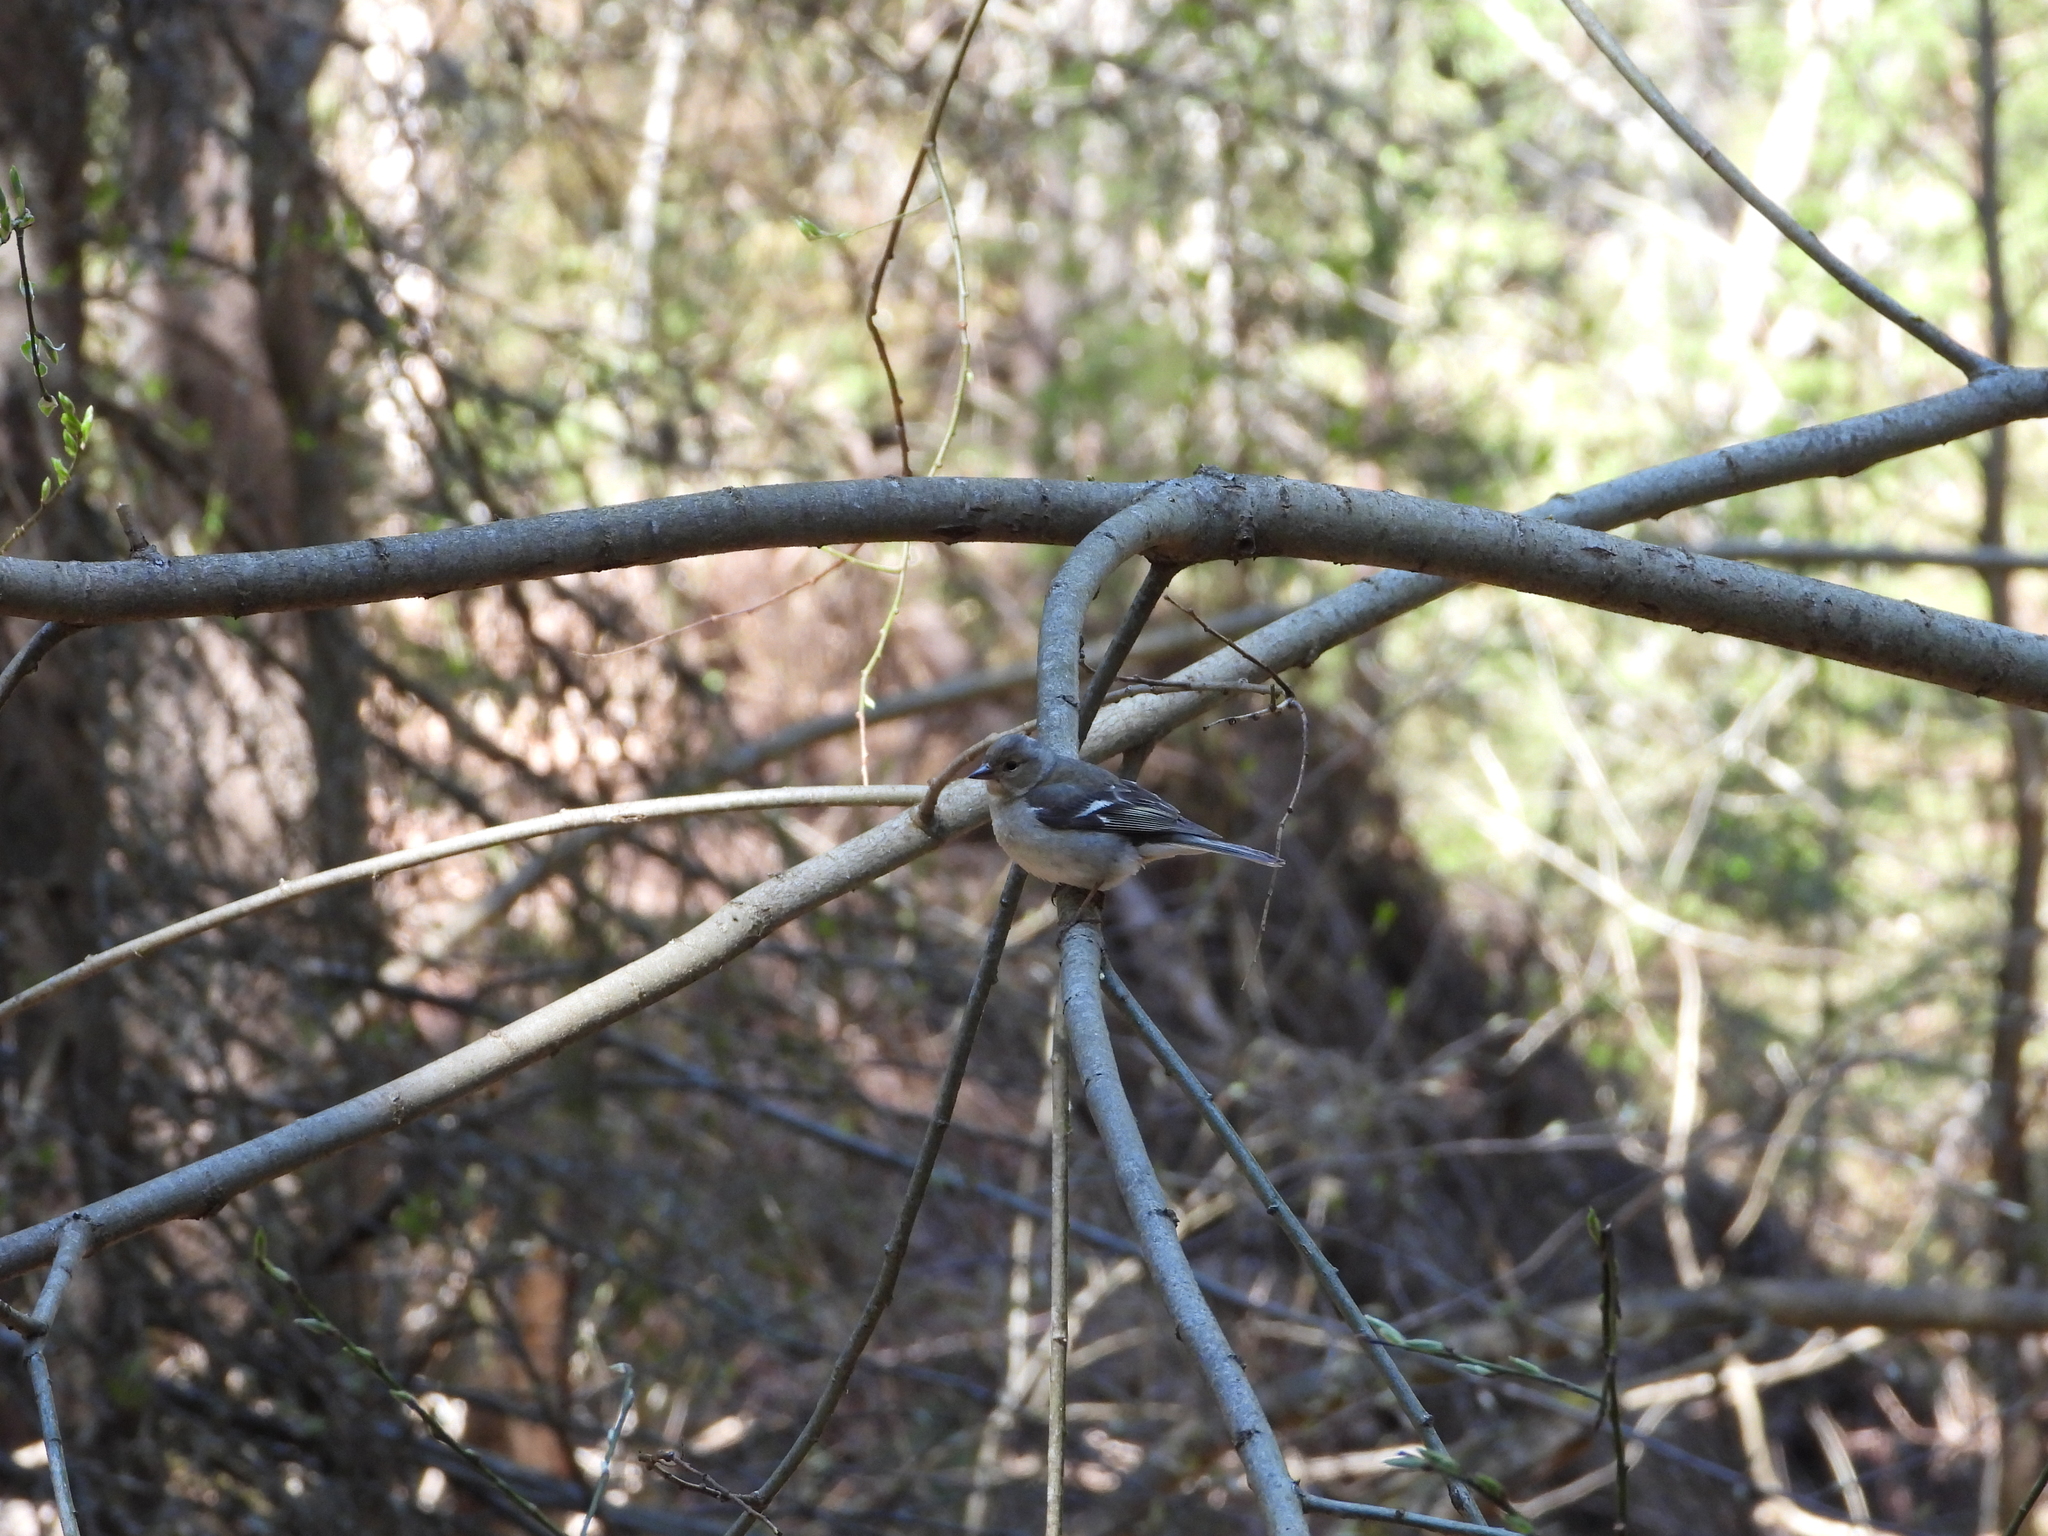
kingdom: Animalia
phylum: Chordata
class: Aves
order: Passeriformes
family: Fringillidae
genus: Fringilla
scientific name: Fringilla coelebs
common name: Common chaffinch
